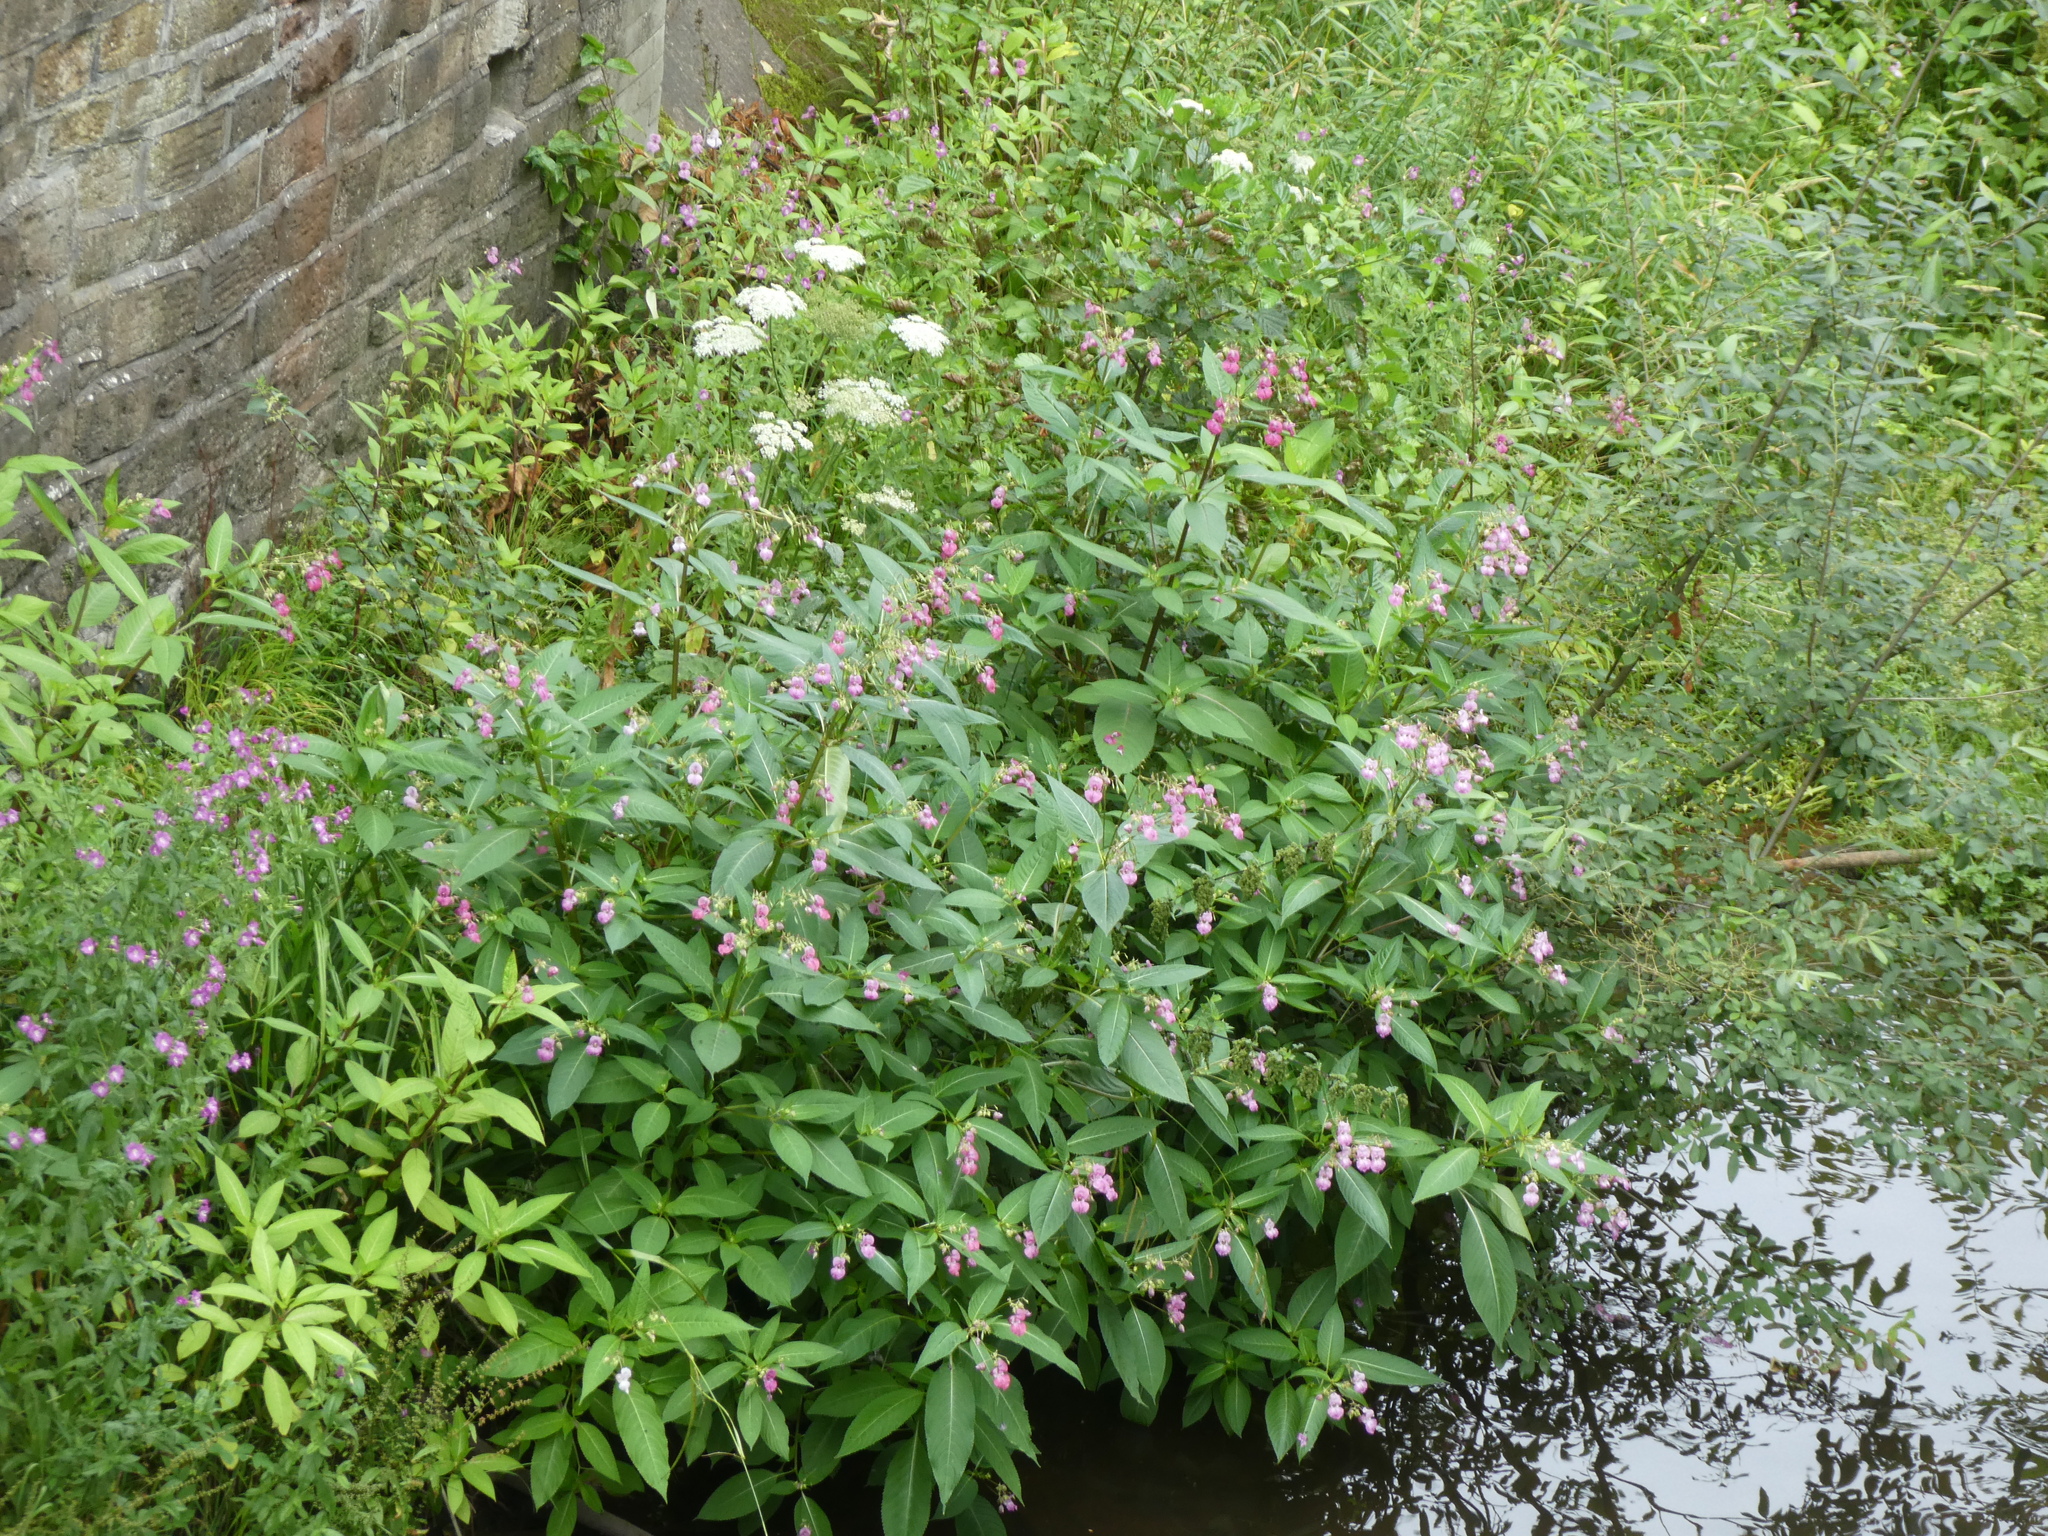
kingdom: Plantae
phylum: Tracheophyta
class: Magnoliopsida
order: Ericales
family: Balsaminaceae
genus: Impatiens
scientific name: Impatiens glandulifera
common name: Himalayan balsam
